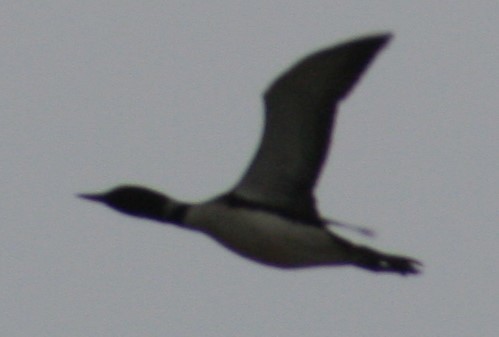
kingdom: Animalia
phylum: Chordata
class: Aves
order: Gaviiformes
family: Gaviidae
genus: Gavia
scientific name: Gavia immer
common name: Common loon
